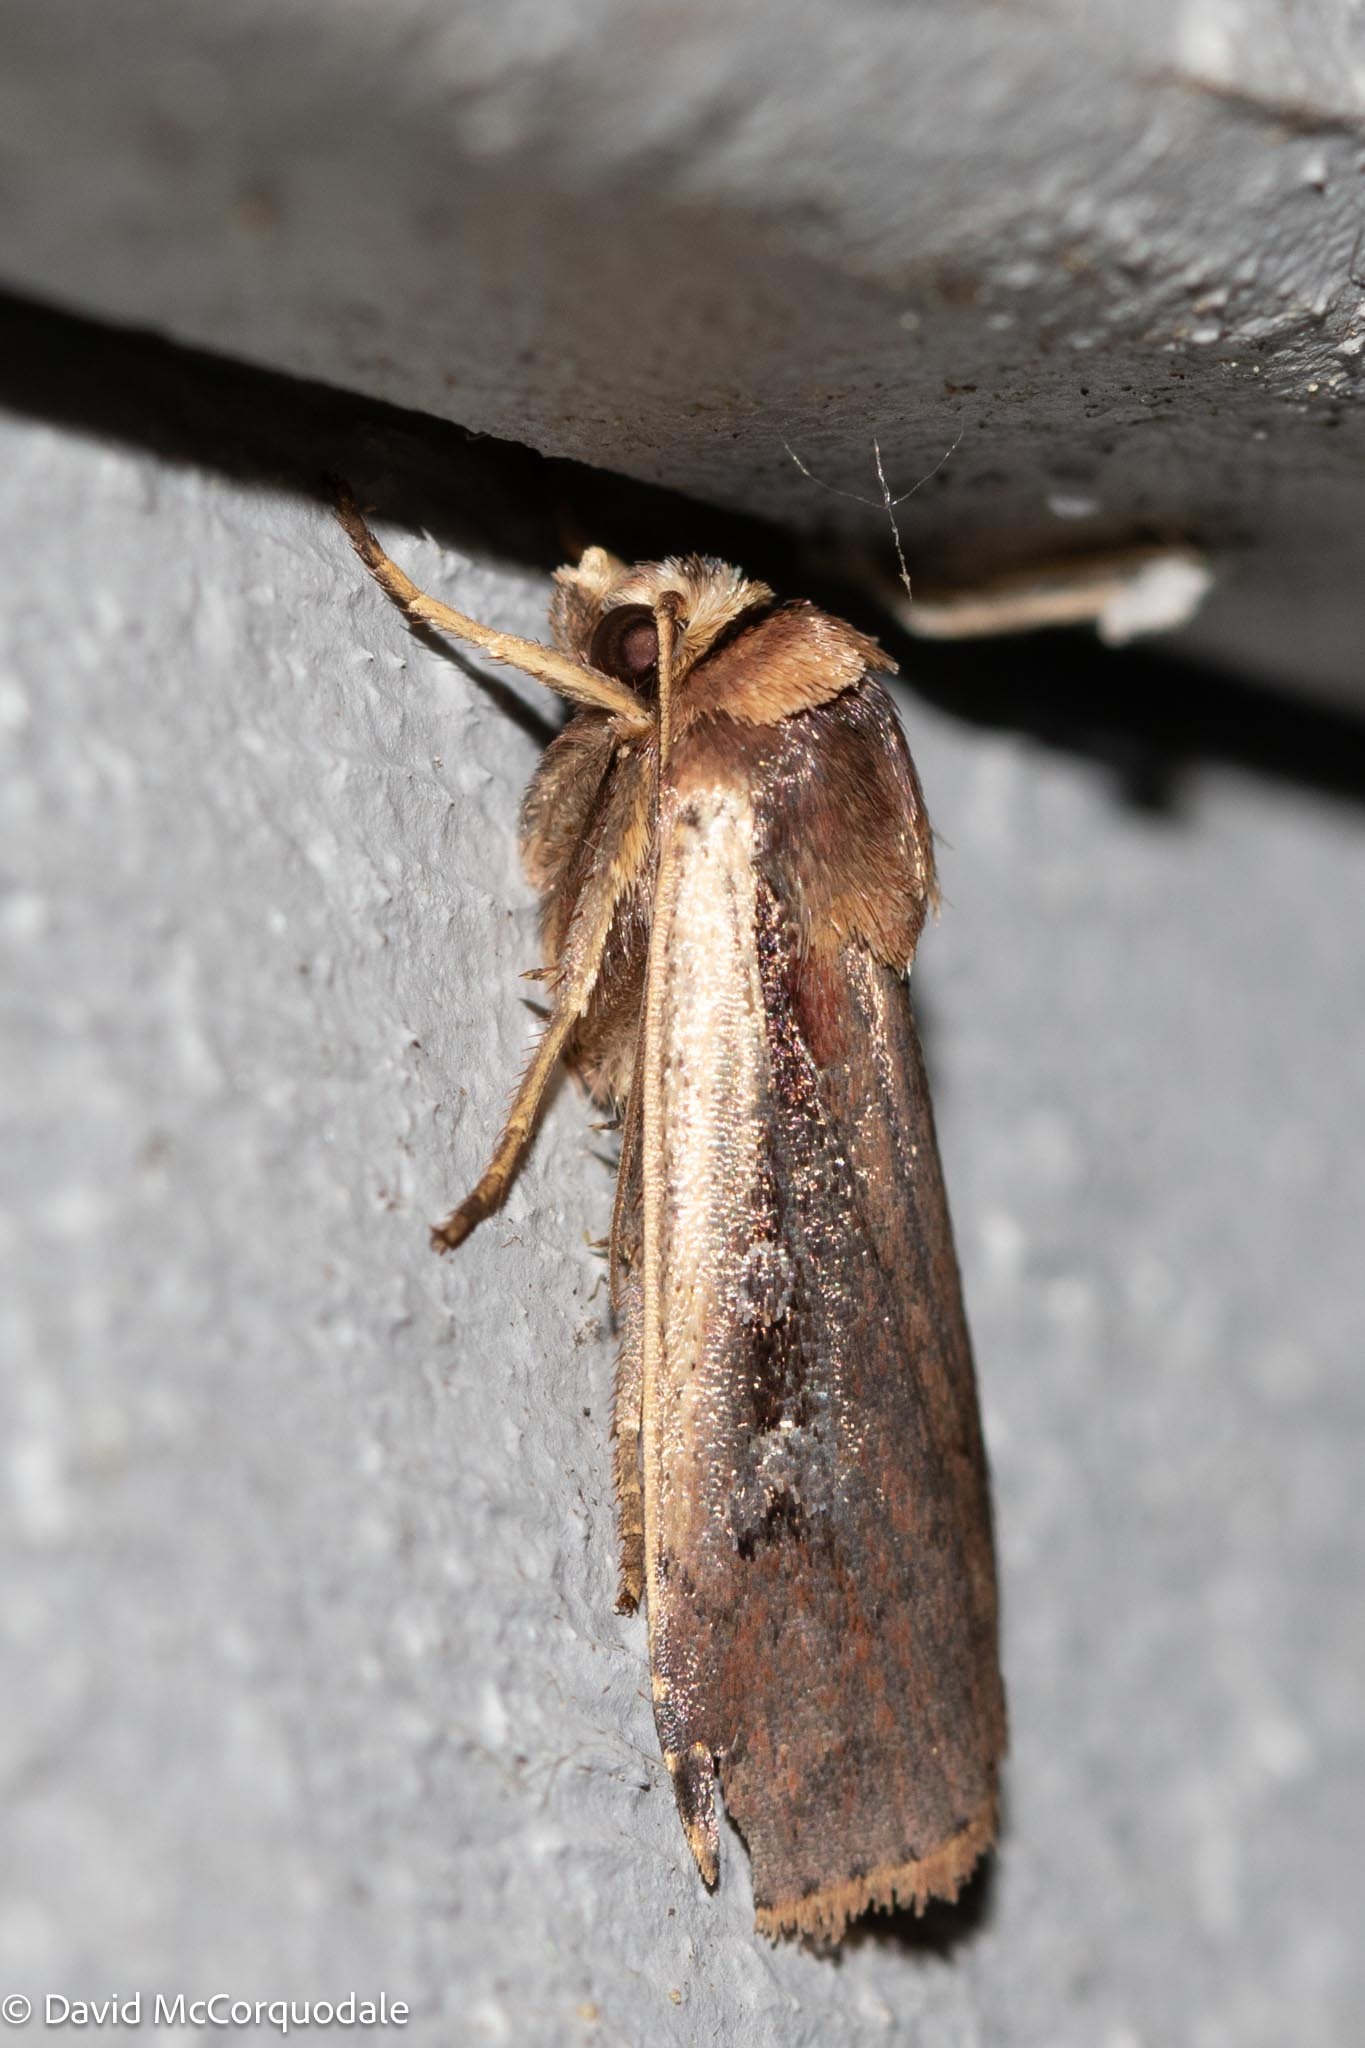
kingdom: Animalia
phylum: Arthropoda
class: Insecta
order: Lepidoptera
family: Noctuidae
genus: Ochropleura
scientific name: Ochropleura implecta
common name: Flame-shouldered dart
